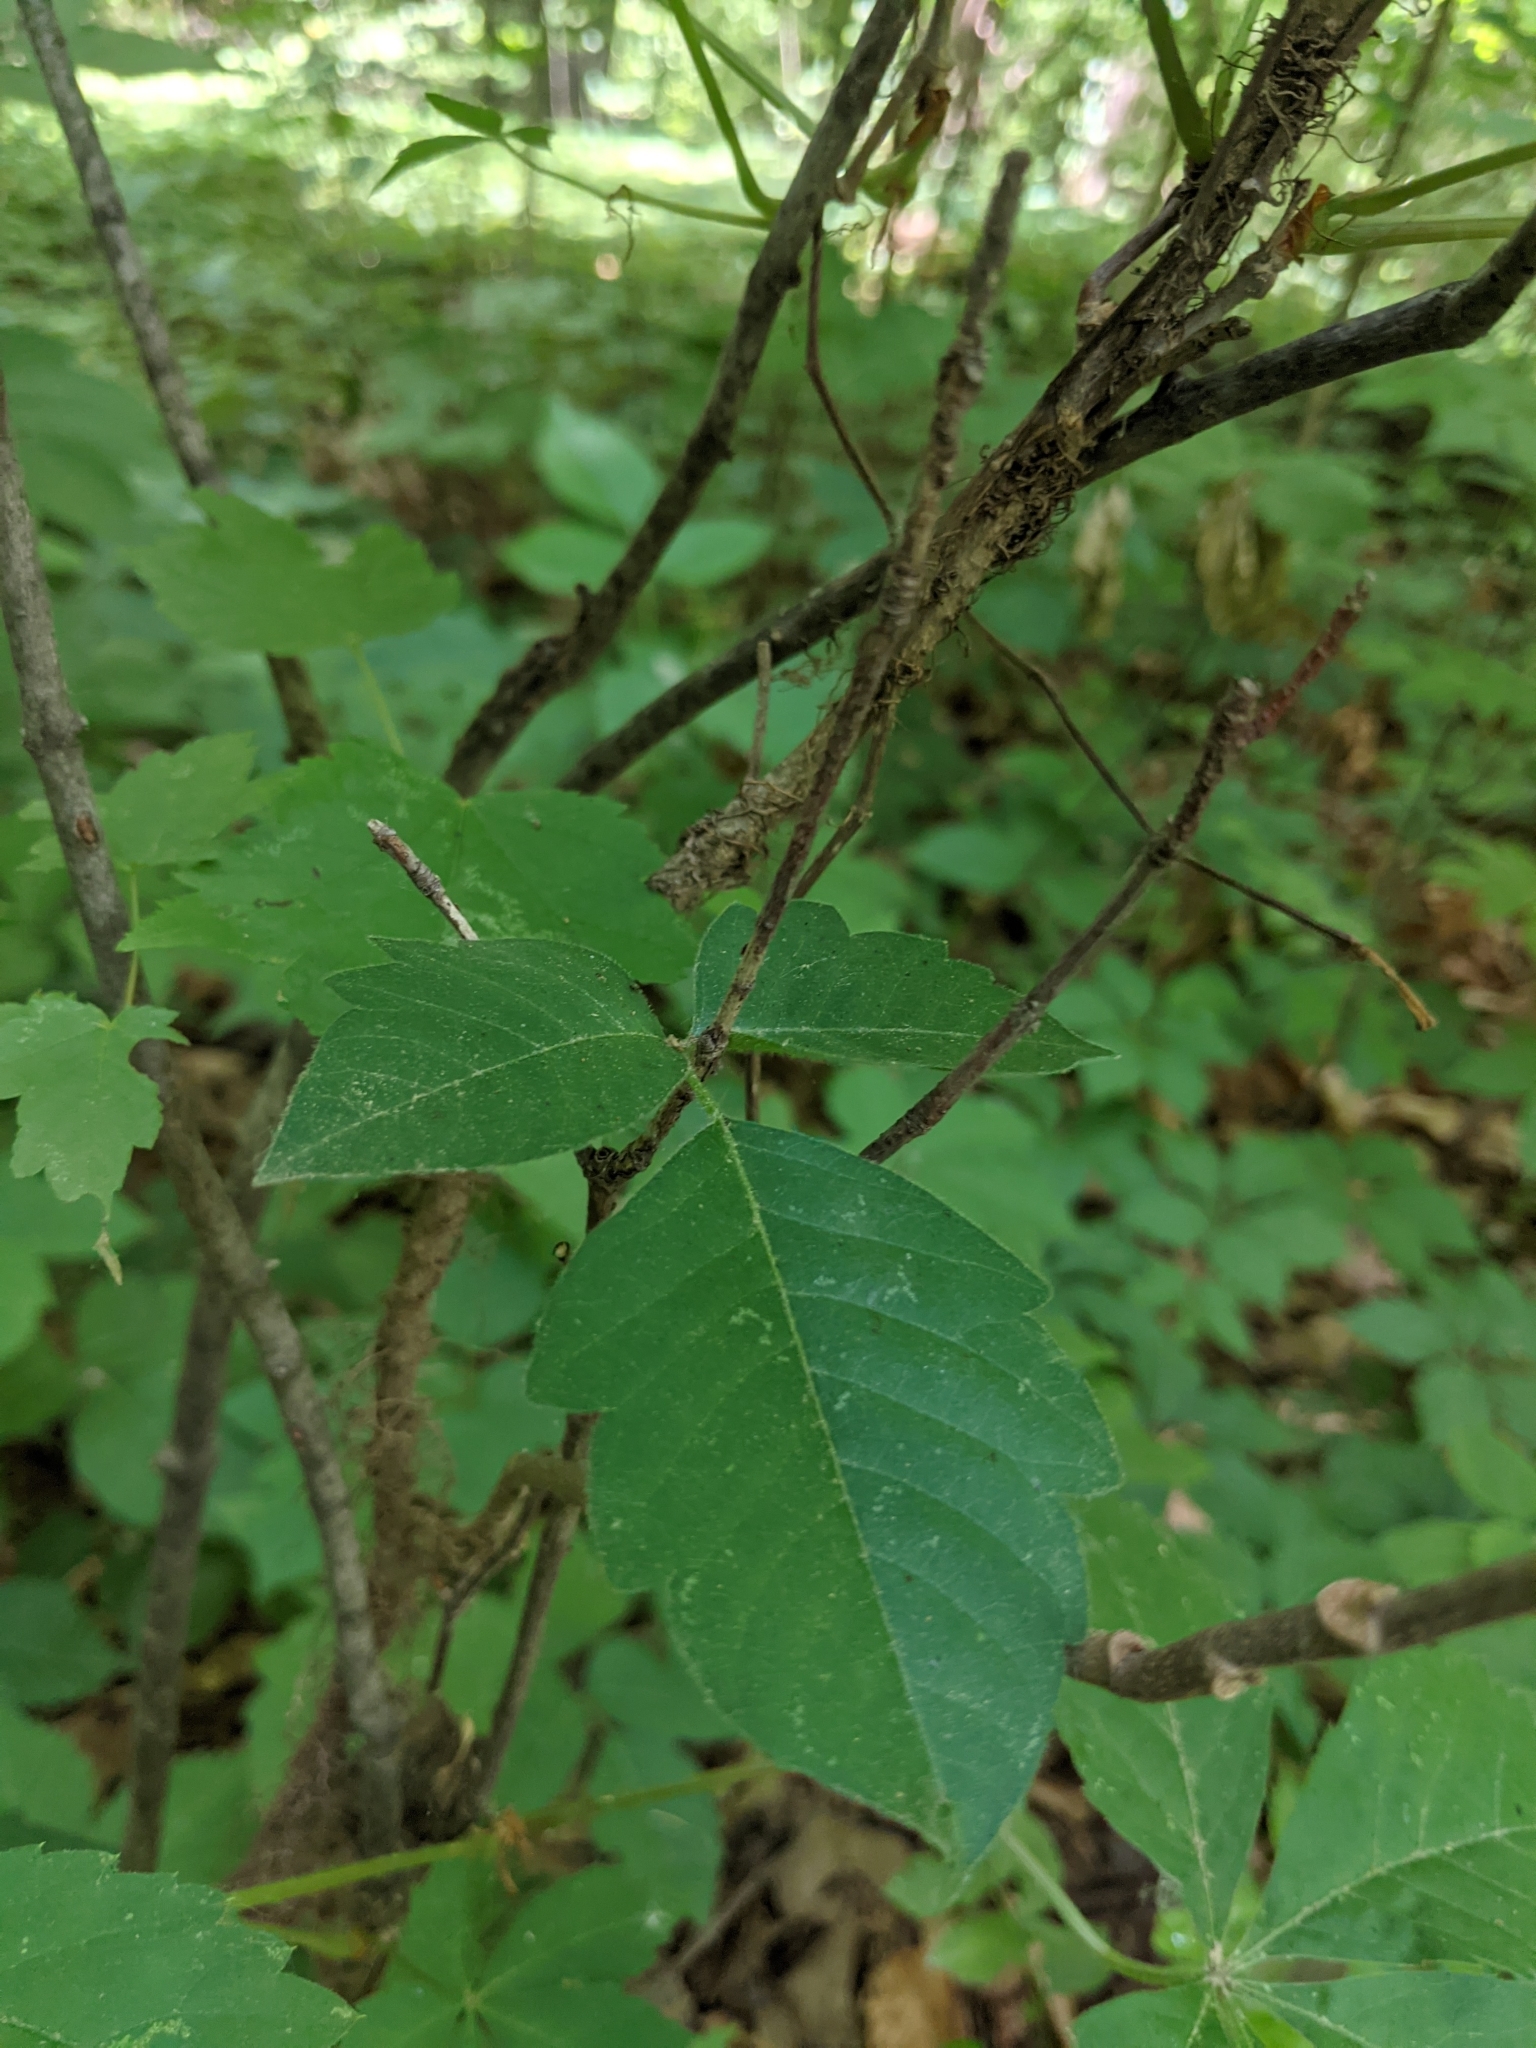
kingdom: Plantae
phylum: Tracheophyta
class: Magnoliopsida
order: Sapindales
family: Anacardiaceae
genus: Toxicodendron
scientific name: Toxicodendron radicans
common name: Poison ivy
